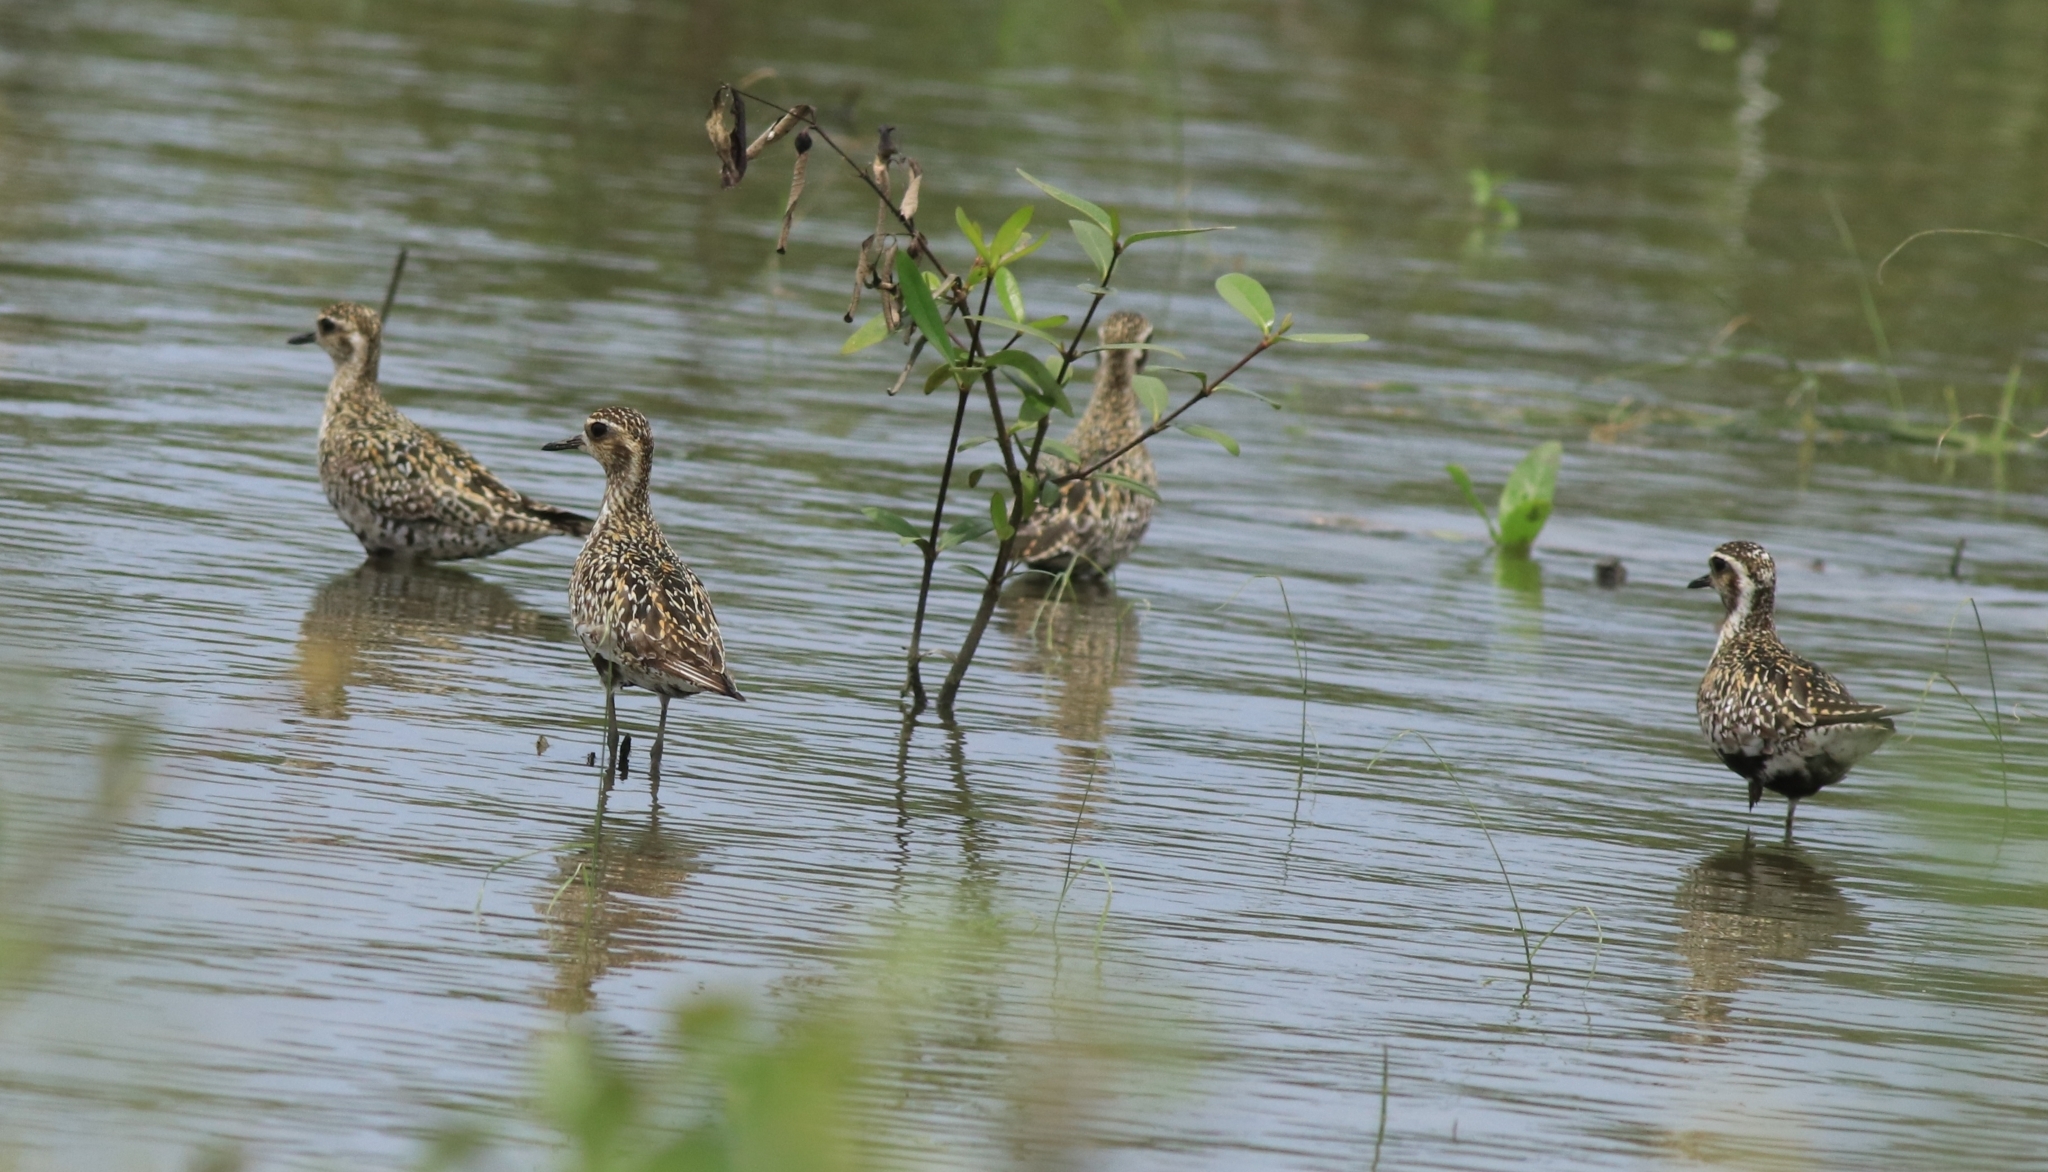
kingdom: Animalia
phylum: Chordata
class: Aves
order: Charadriiformes
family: Charadriidae
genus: Pluvialis
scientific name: Pluvialis fulva
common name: Pacific golden plover
